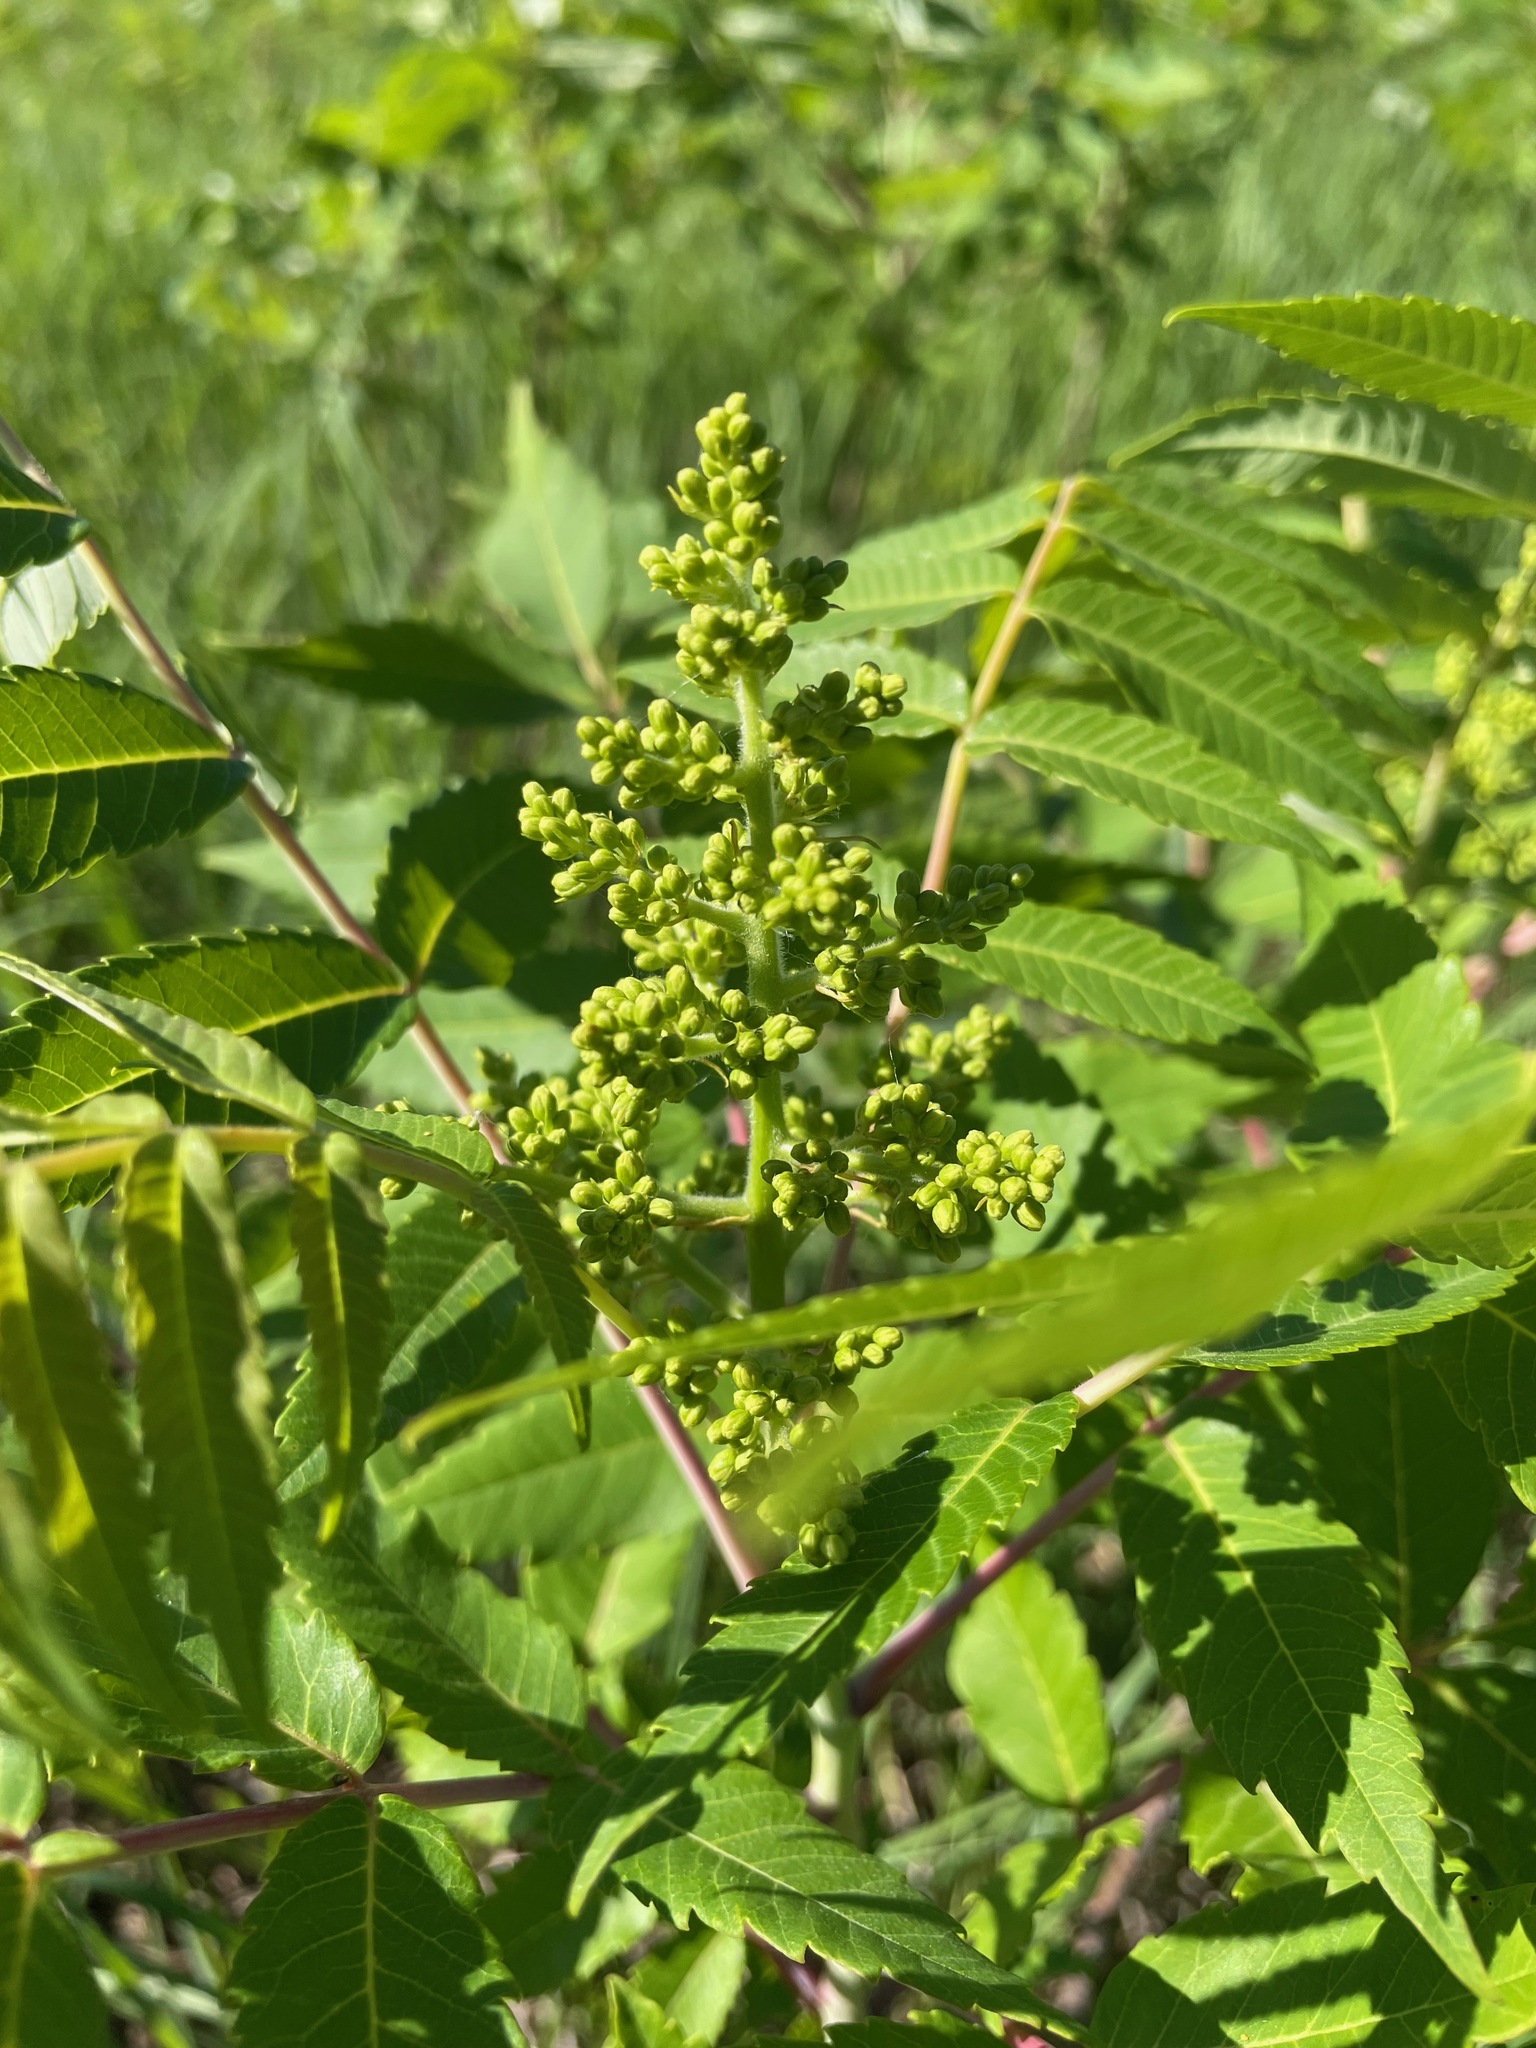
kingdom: Plantae
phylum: Tracheophyta
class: Magnoliopsida
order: Sapindales
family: Anacardiaceae
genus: Rhus
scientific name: Rhus glabra
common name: Scarlet sumac
